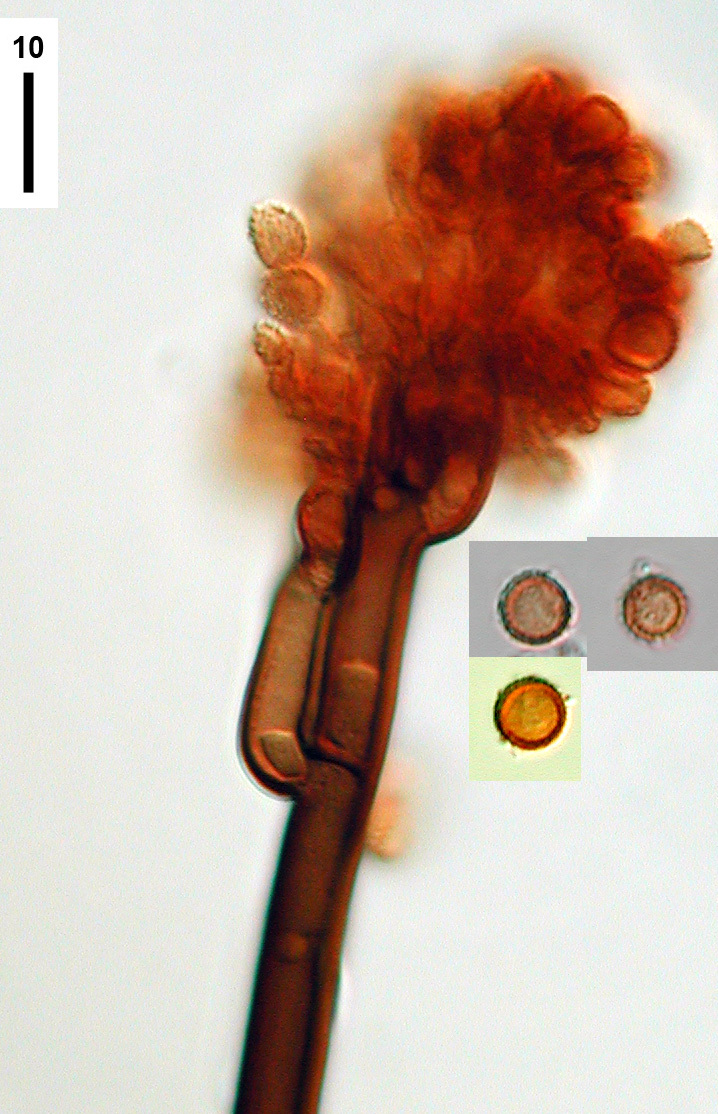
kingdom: Fungi
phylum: Ascomycota
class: Dothideomycetes
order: Pleosporales
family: Periconiaceae
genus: Periconia
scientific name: Periconia minutissima
